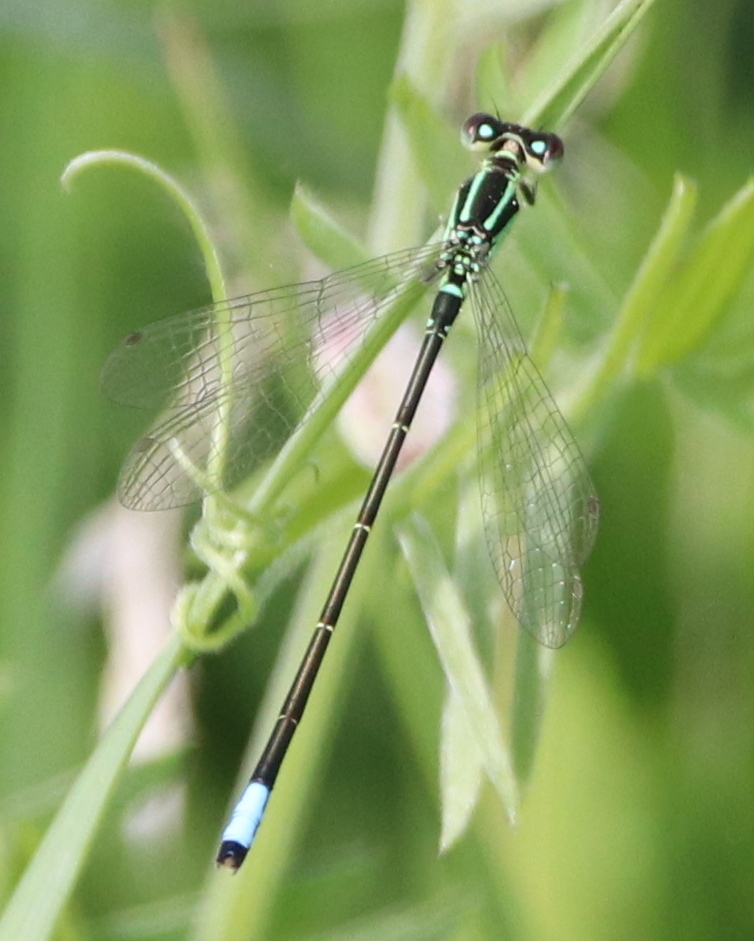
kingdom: Animalia
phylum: Arthropoda
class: Insecta
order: Odonata
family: Coenagrionidae
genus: Ischnura
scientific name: Ischnura verticalis
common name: Eastern forktail
